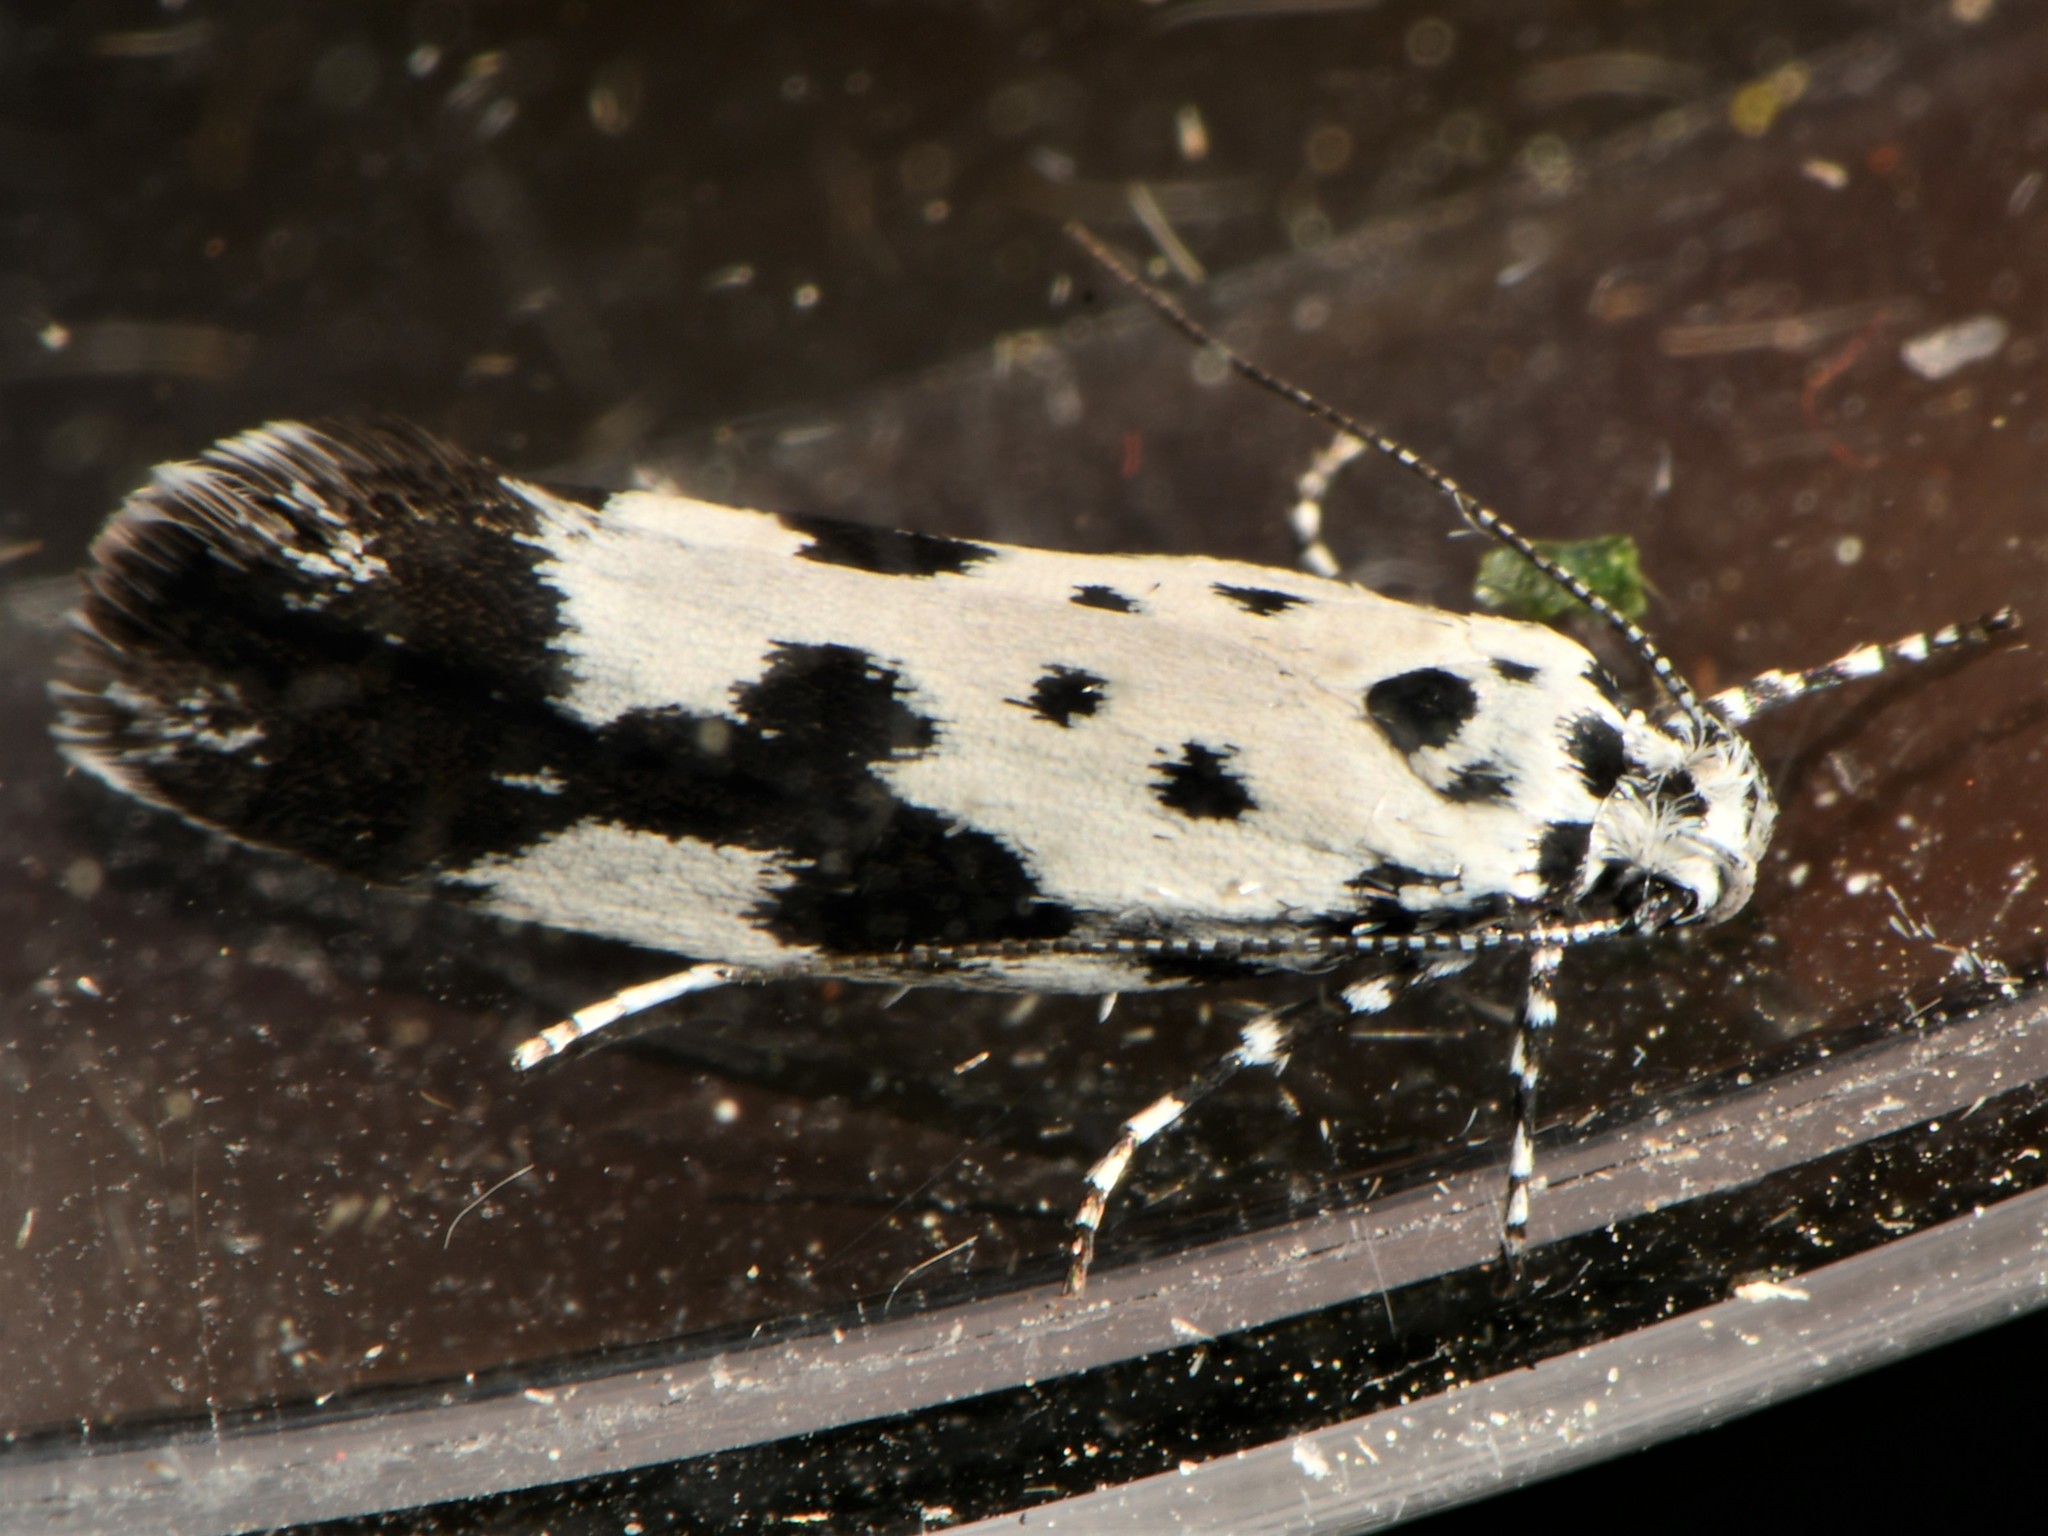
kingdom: Animalia
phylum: Arthropoda
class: Insecta
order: Lepidoptera
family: Ethmiidae
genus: Ethmia
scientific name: Ethmia quadrillella
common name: Comfrey ermel
